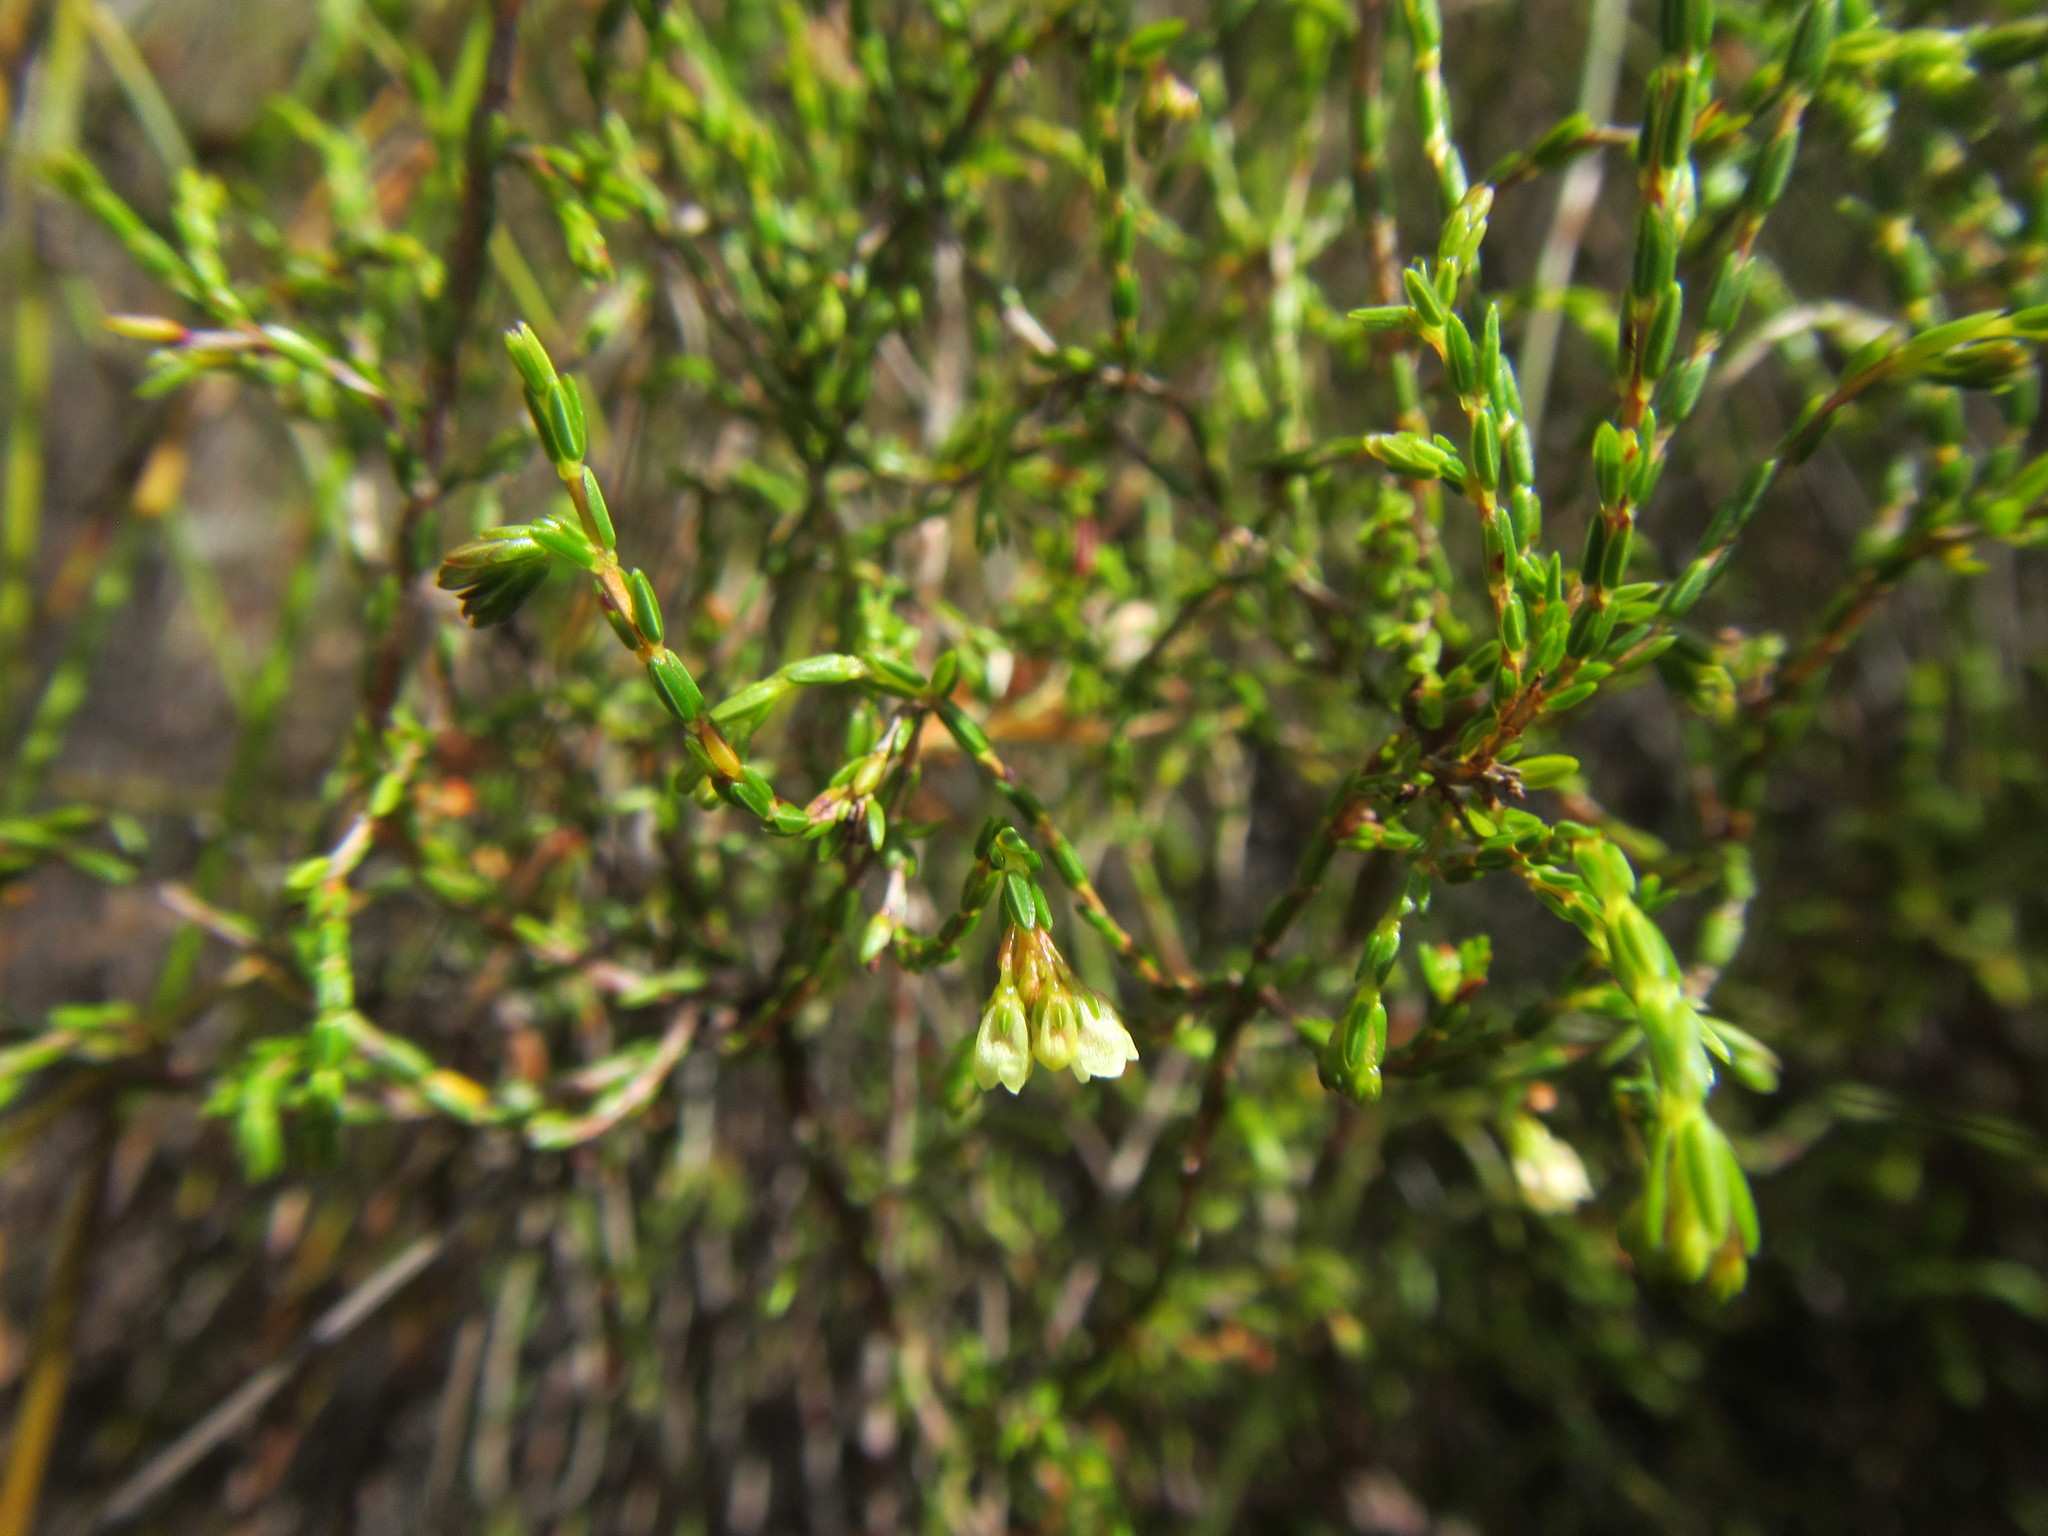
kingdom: Plantae
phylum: Tracheophyta
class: Magnoliopsida
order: Ericales
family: Ericaceae
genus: Erica
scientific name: Erica multiflexuosa
